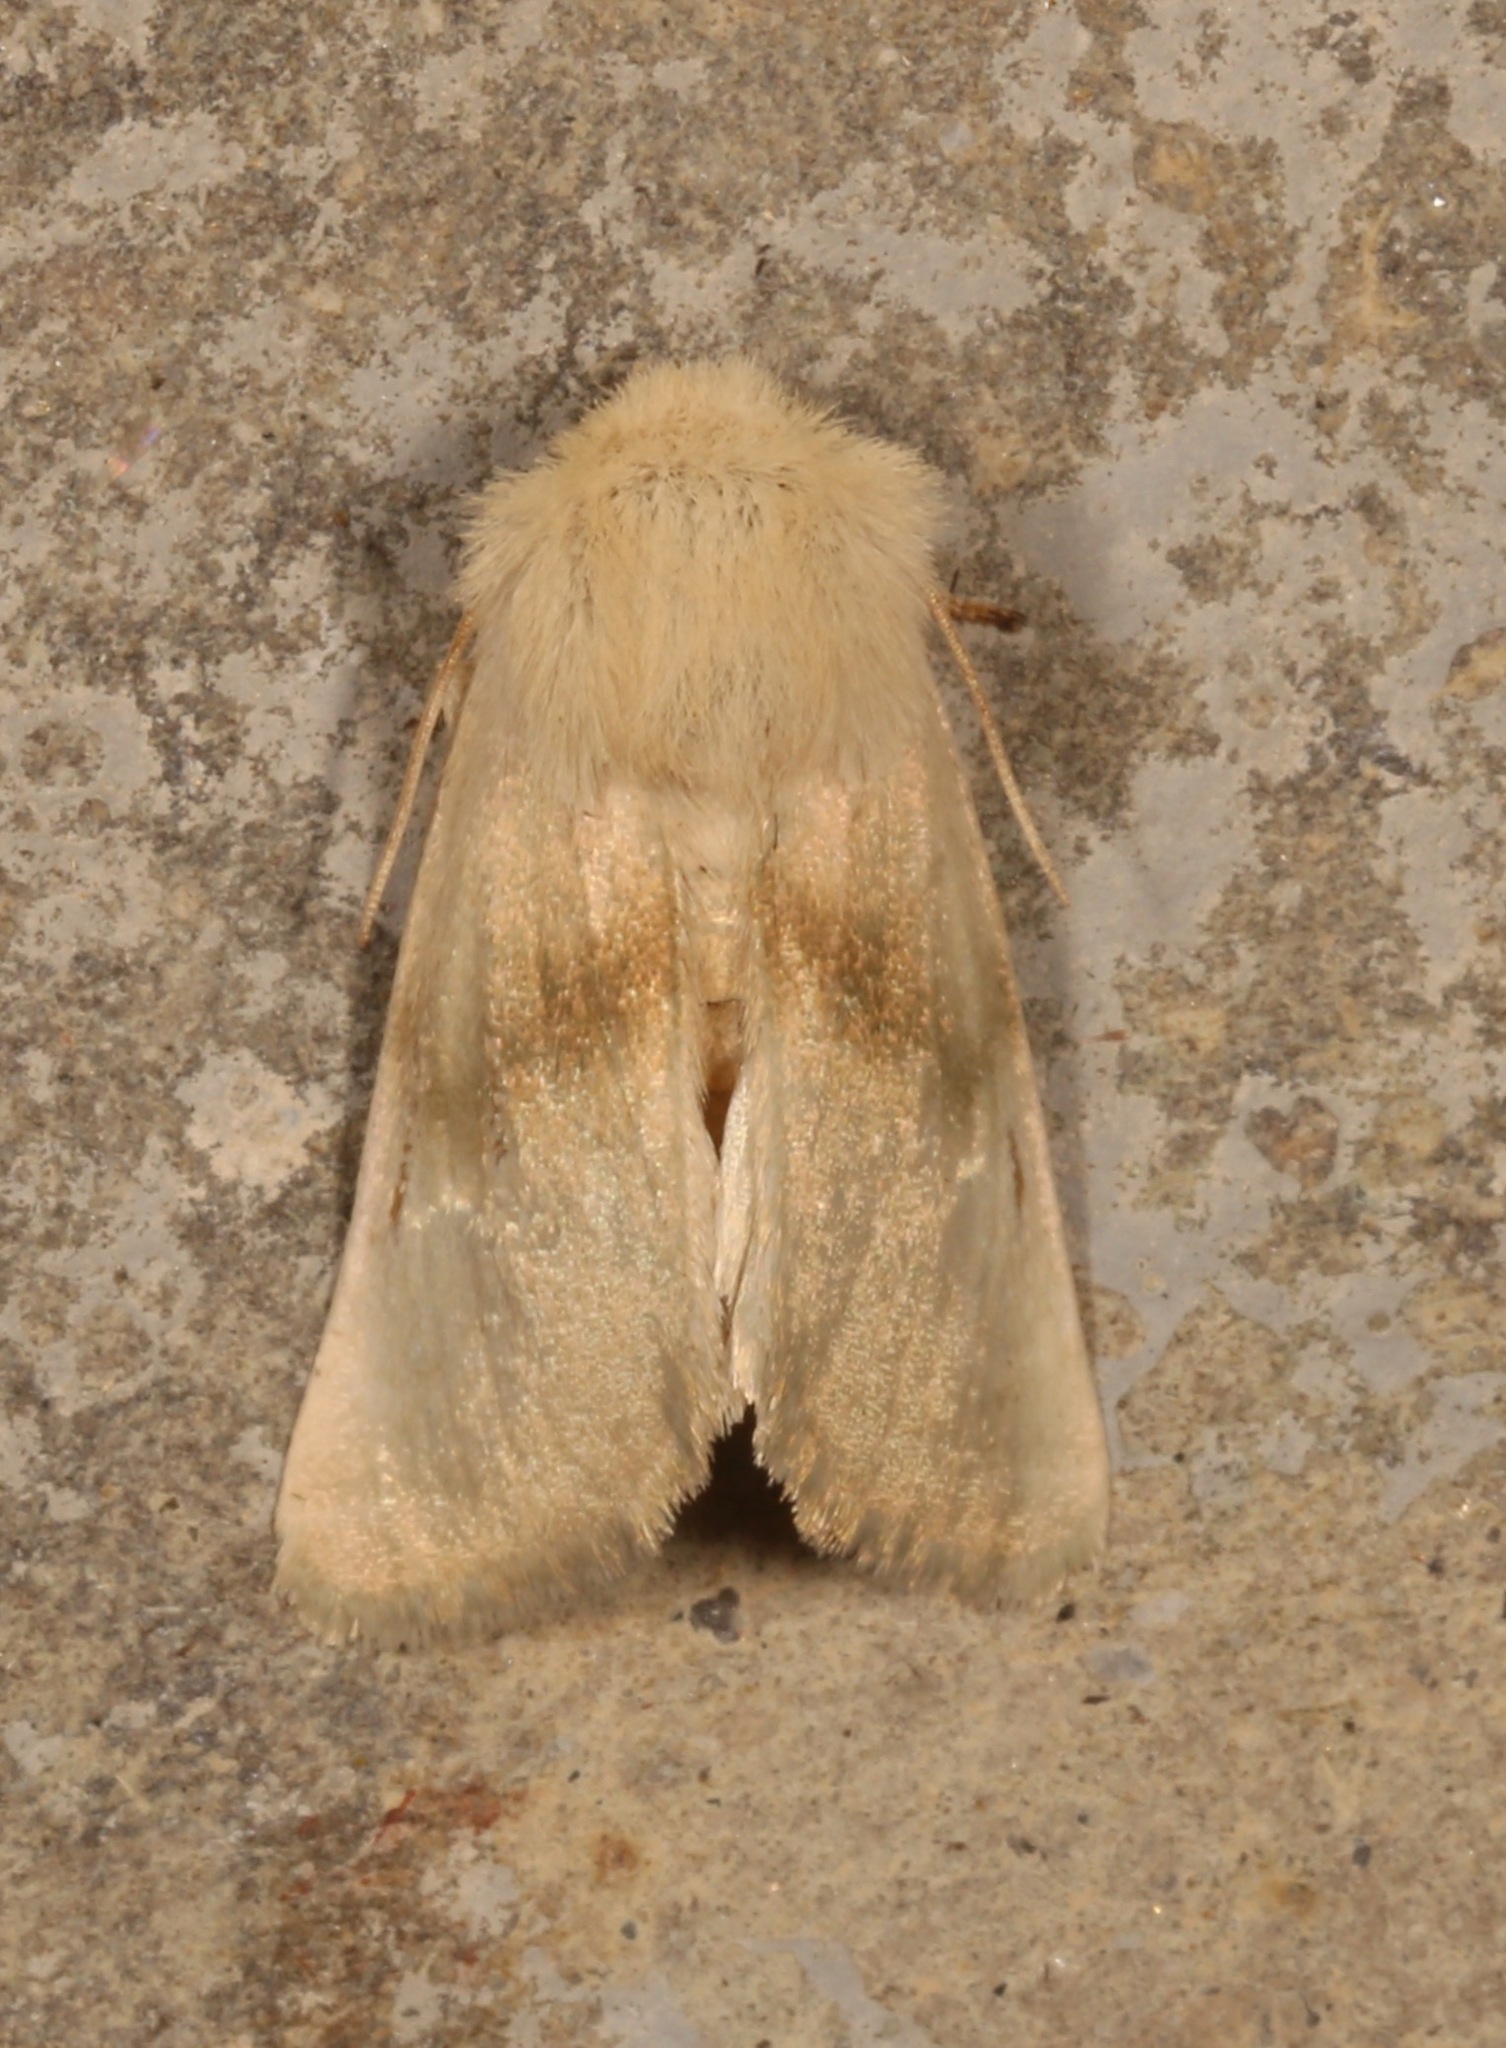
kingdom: Animalia
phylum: Arthropoda
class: Insecta
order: Lepidoptera
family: Noctuidae
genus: Nocloa
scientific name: Nocloa pallens
